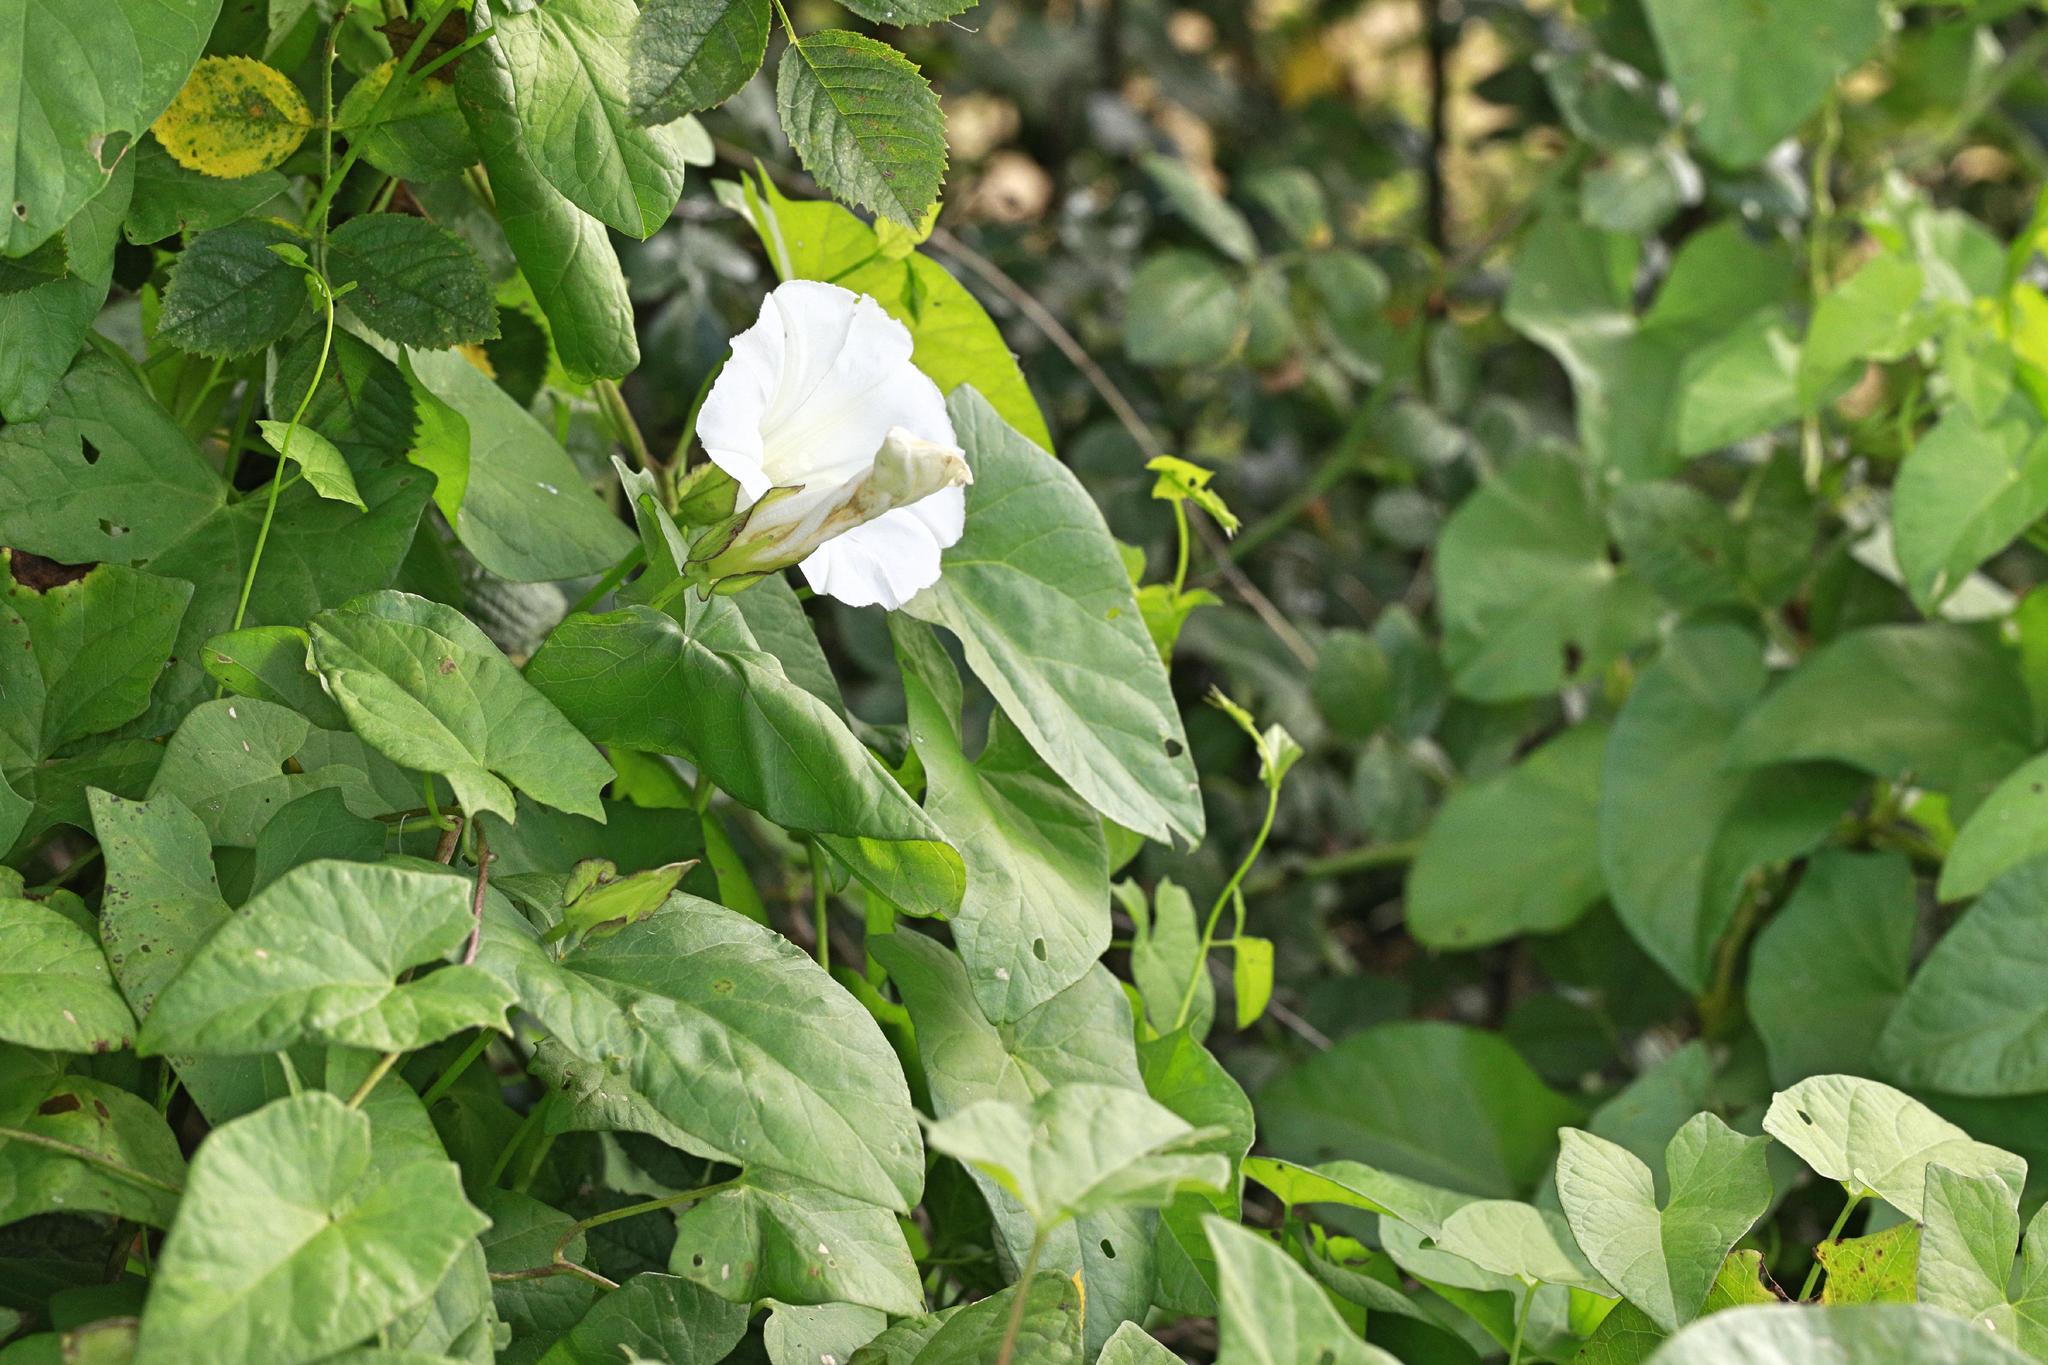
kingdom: Plantae
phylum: Tracheophyta
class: Magnoliopsida
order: Solanales
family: Convolvulaceae
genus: Calystegia
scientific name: Calystegia sepium
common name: Hedge bindweed
